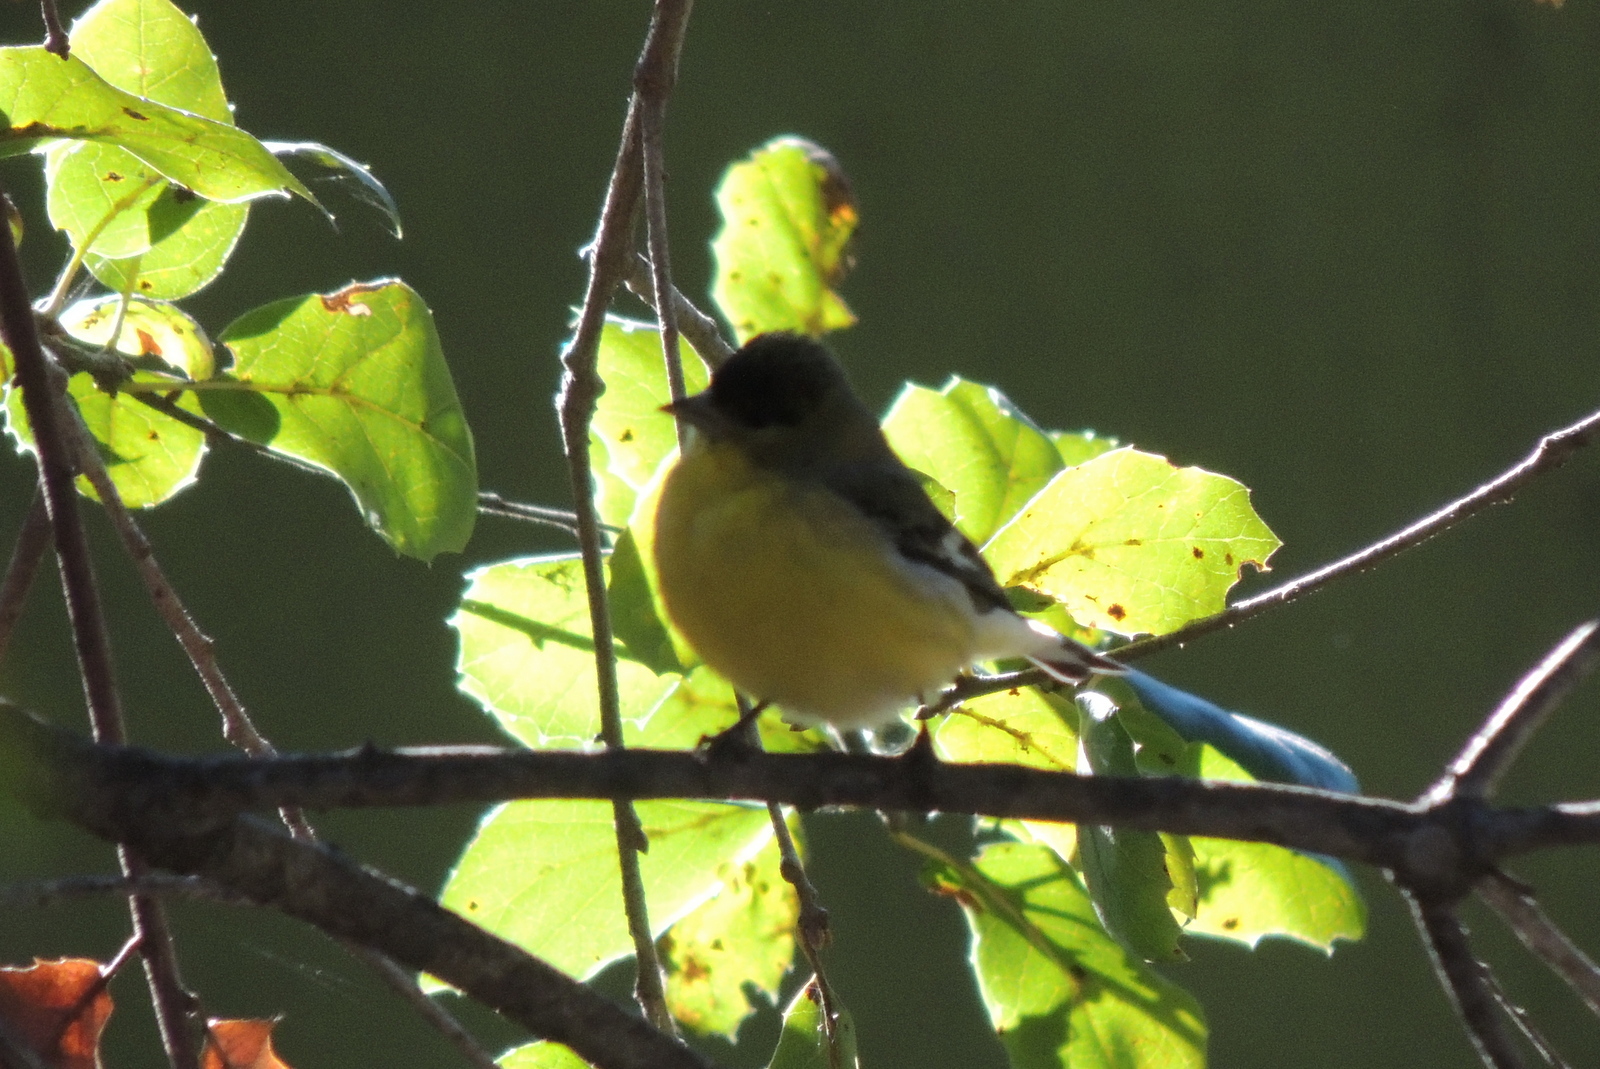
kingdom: Animalia
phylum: Chordata
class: Aves
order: Passeriformes
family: Fringillidae
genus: Spinus
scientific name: Spinus psaltria
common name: Lesser goldfinch
